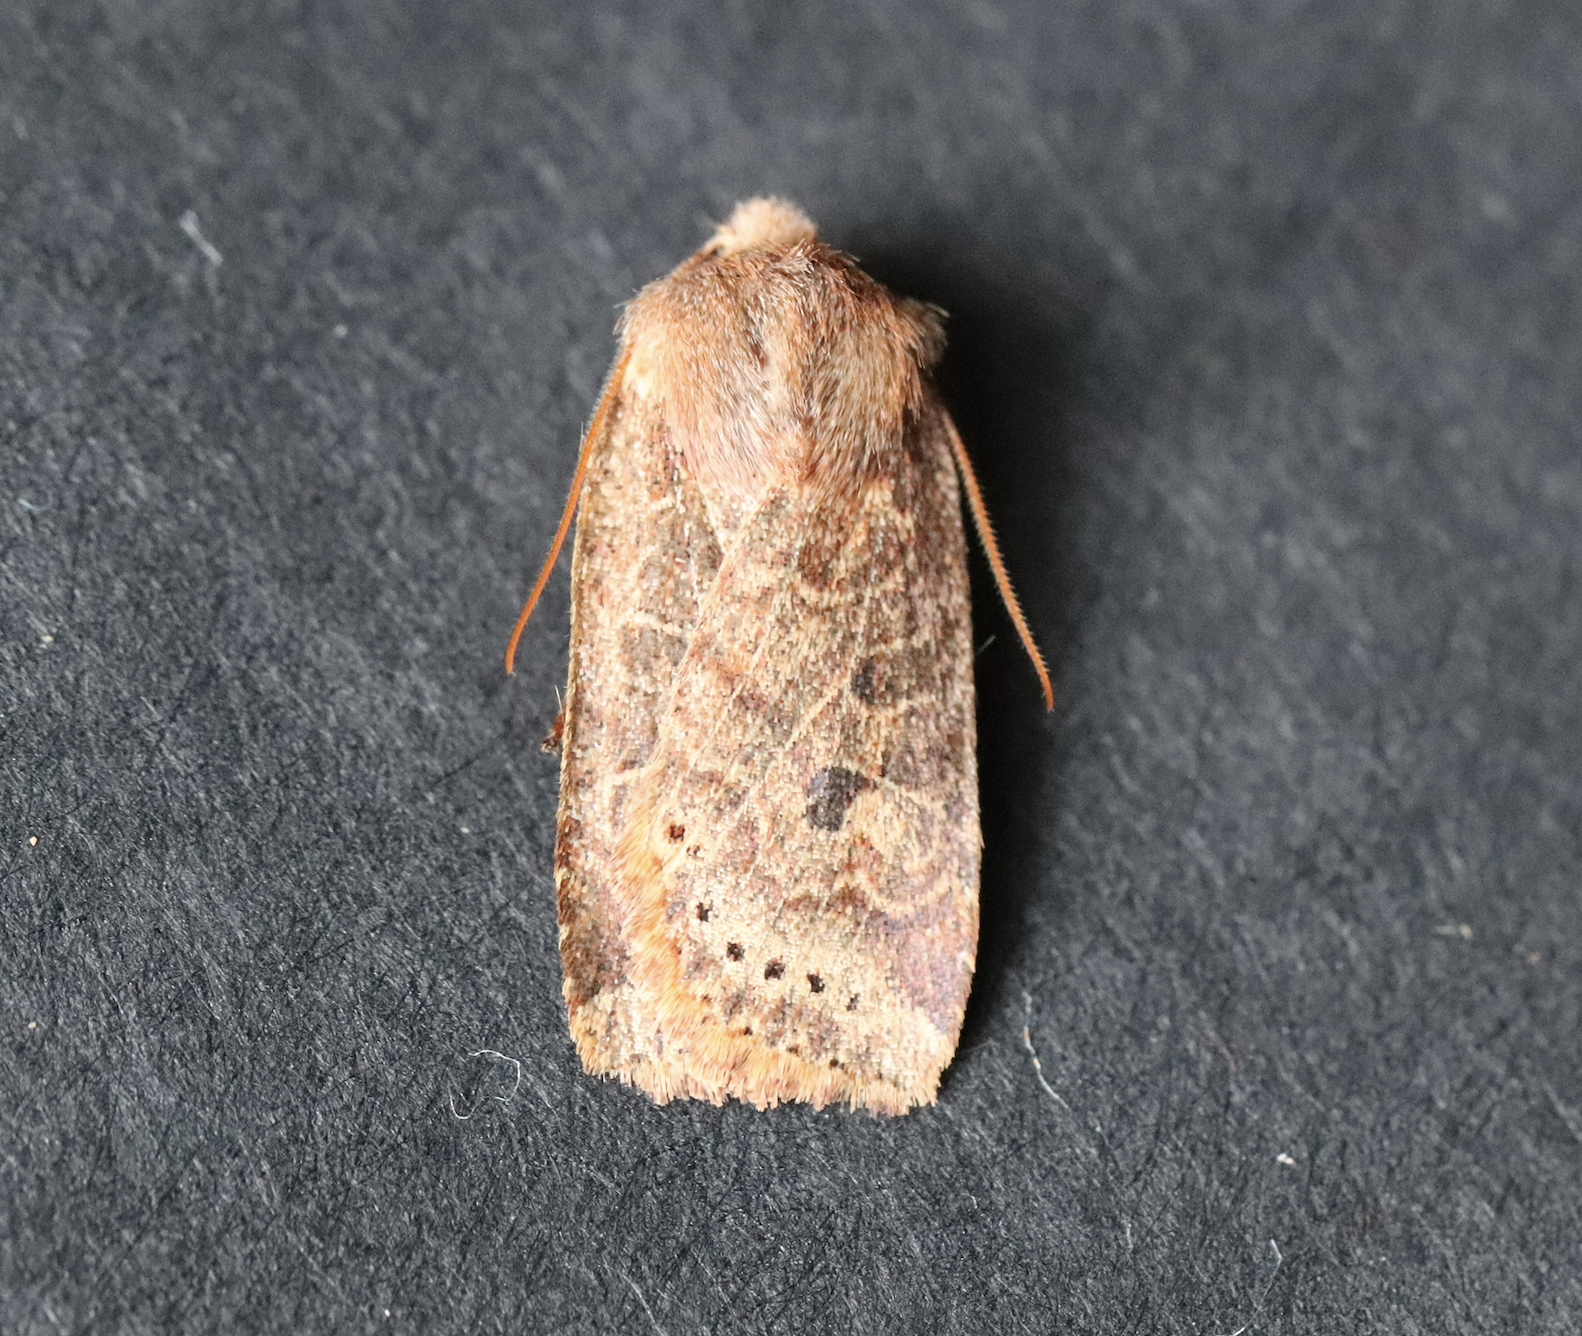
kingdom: Animalia
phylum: Arthropoda
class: Insecta
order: Lepidoptera
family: Noctuidae
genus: Conistra
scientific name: Conistra vaccinii
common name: Chestnut
